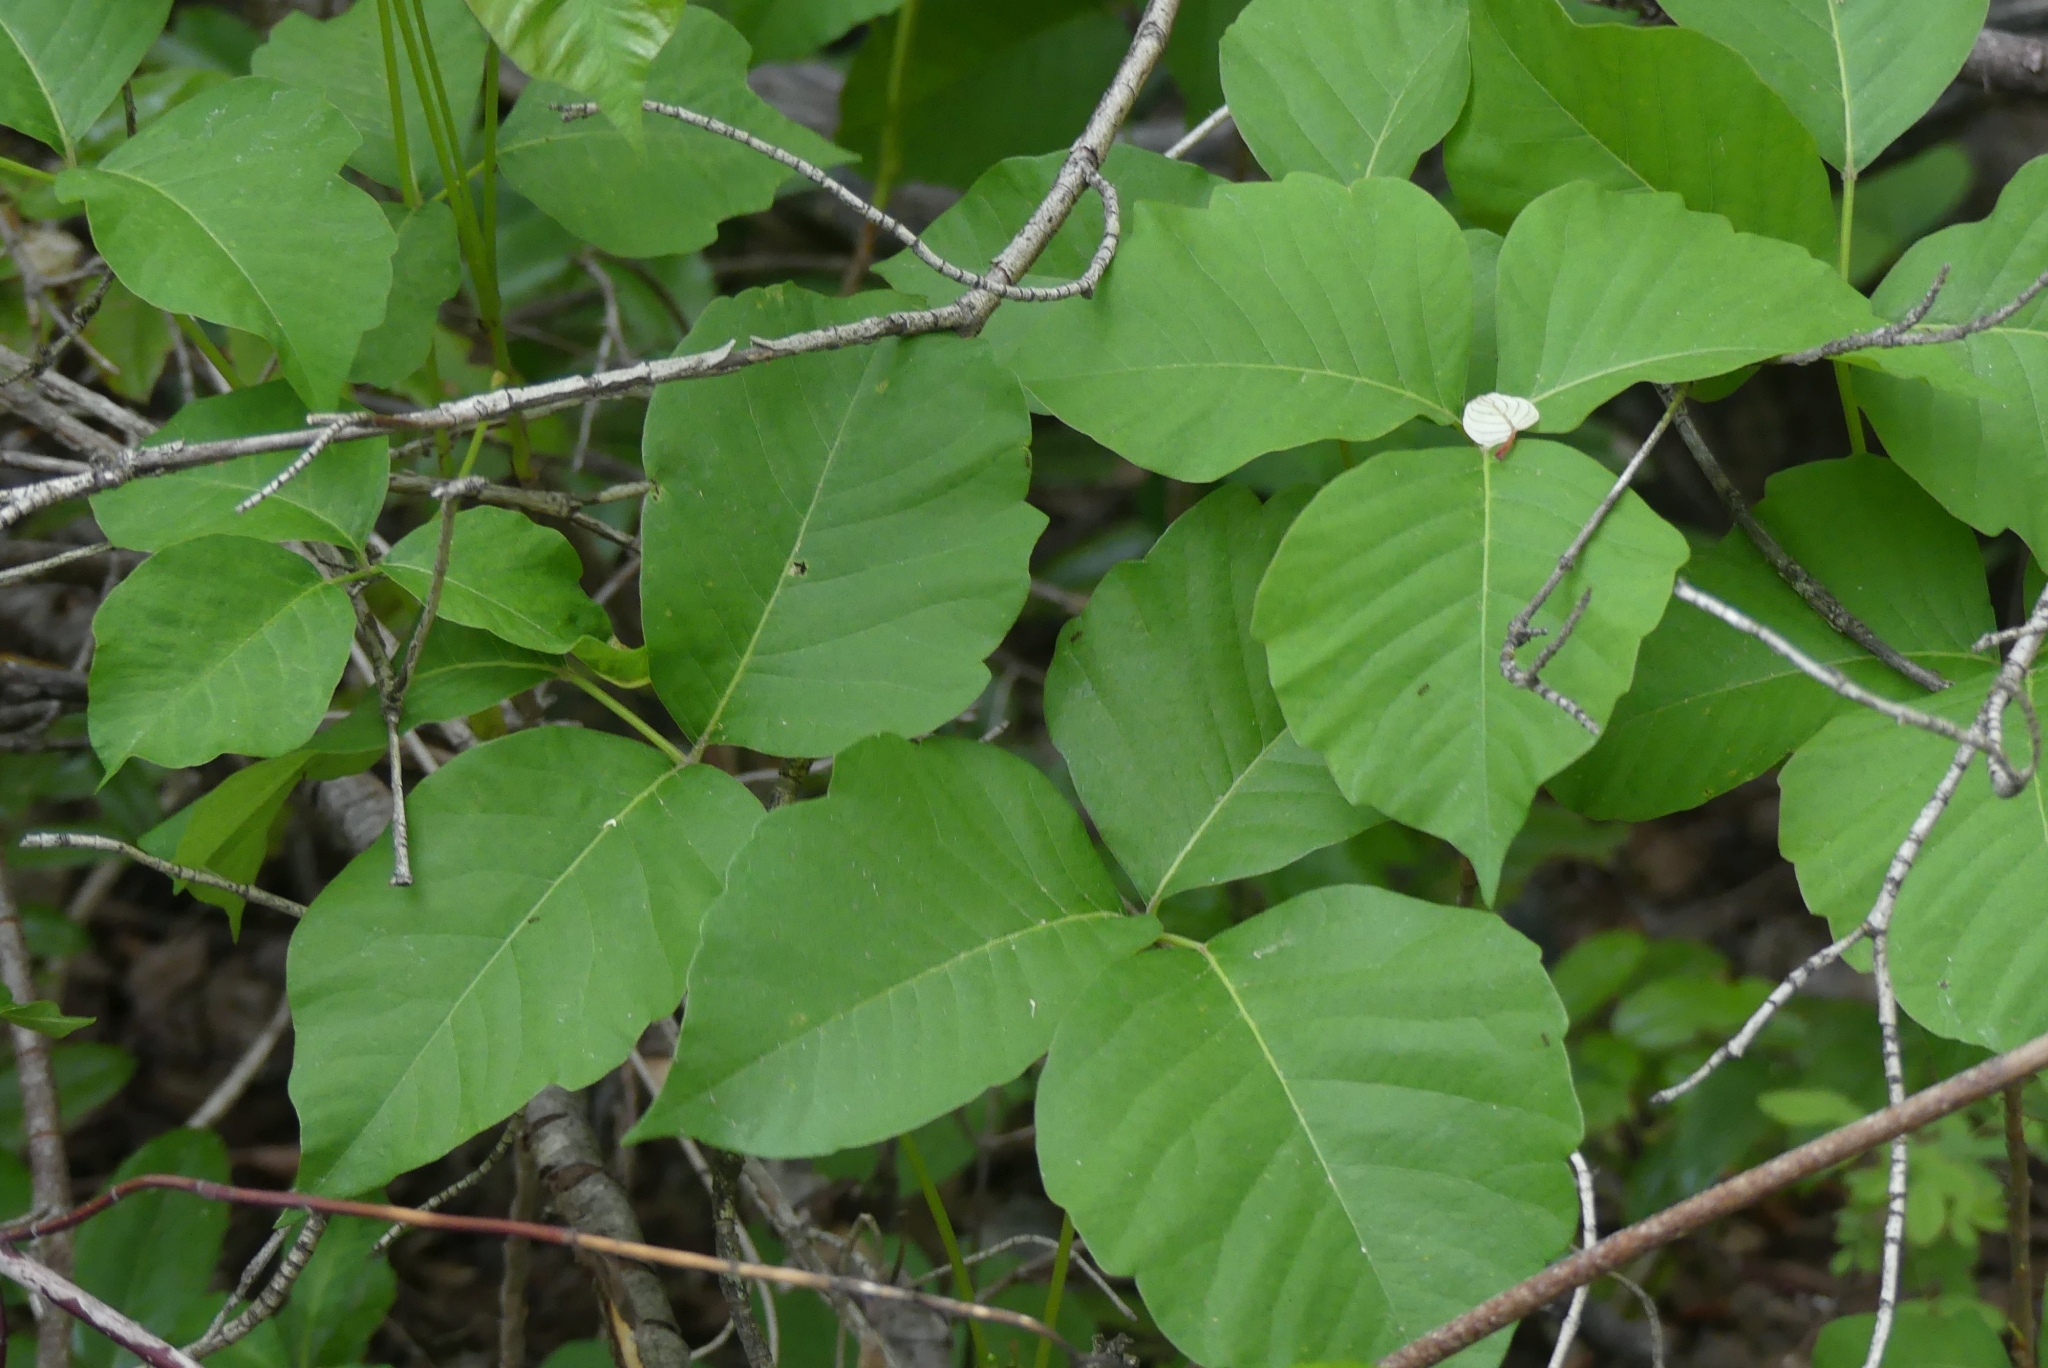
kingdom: Plantae
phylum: Tracheophyta
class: Magnoliopsida
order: Sapindales
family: Anacardiaceae
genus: Toxicodendron
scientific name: Toxicodendron rydbergii
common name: Rydberg's poison-ivy
